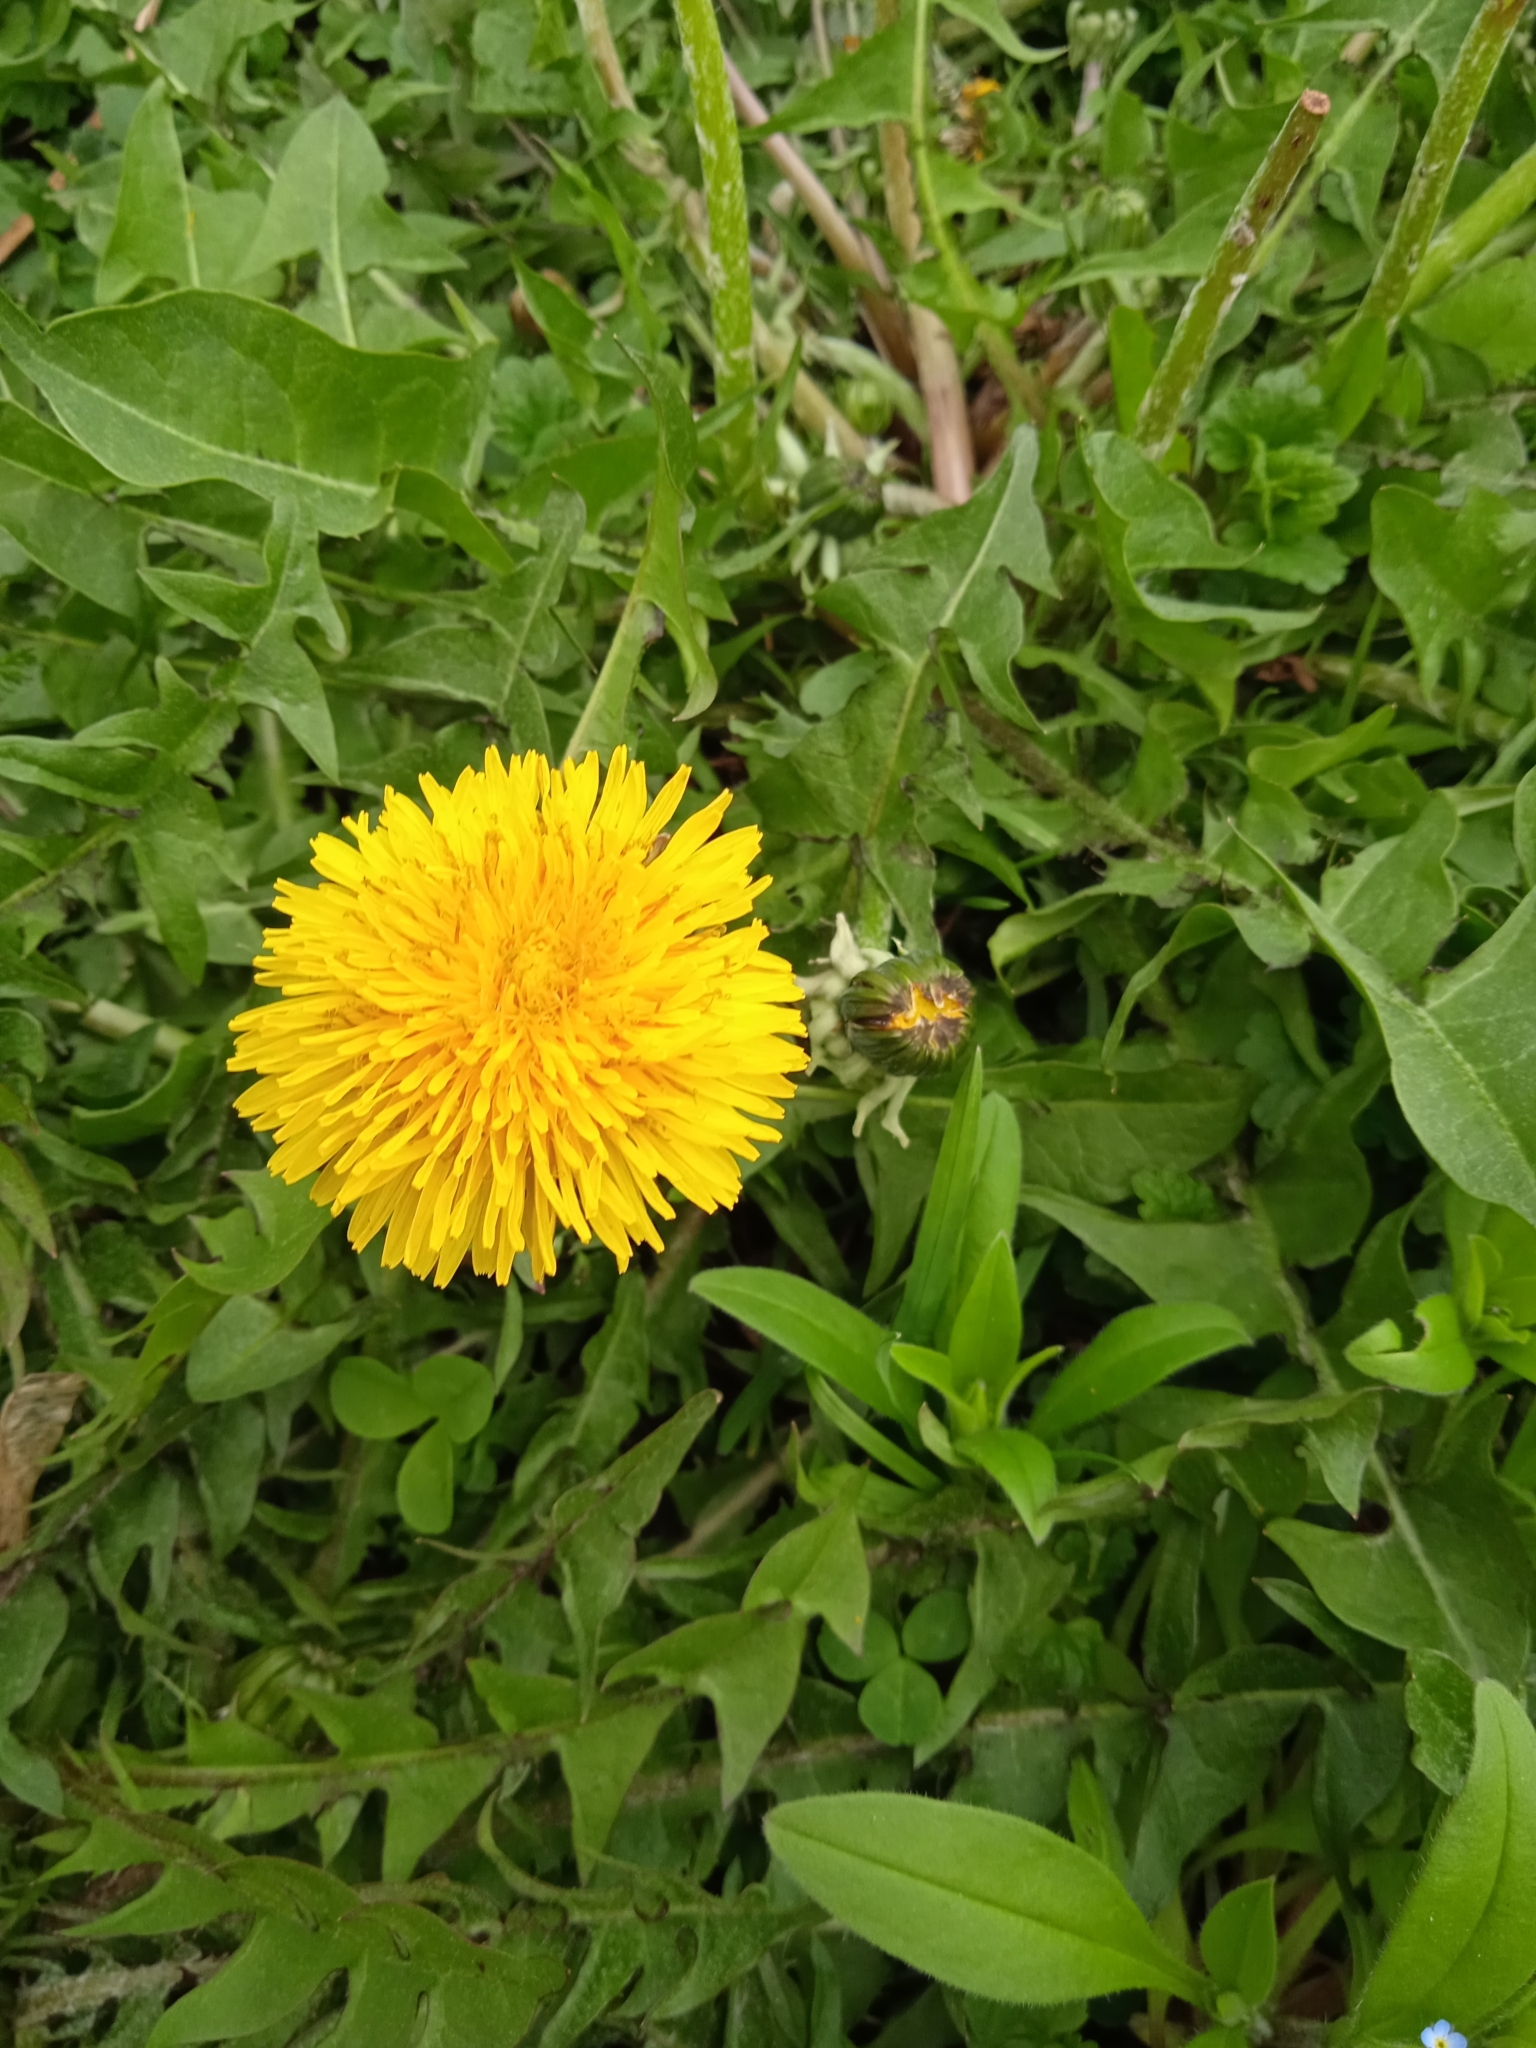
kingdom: Plantae
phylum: Tracheophyta
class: Magnoliopsida
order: Asterales
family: Asteraceae
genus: Taraxacum
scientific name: Taraxacum officinale
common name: Common dandelion
